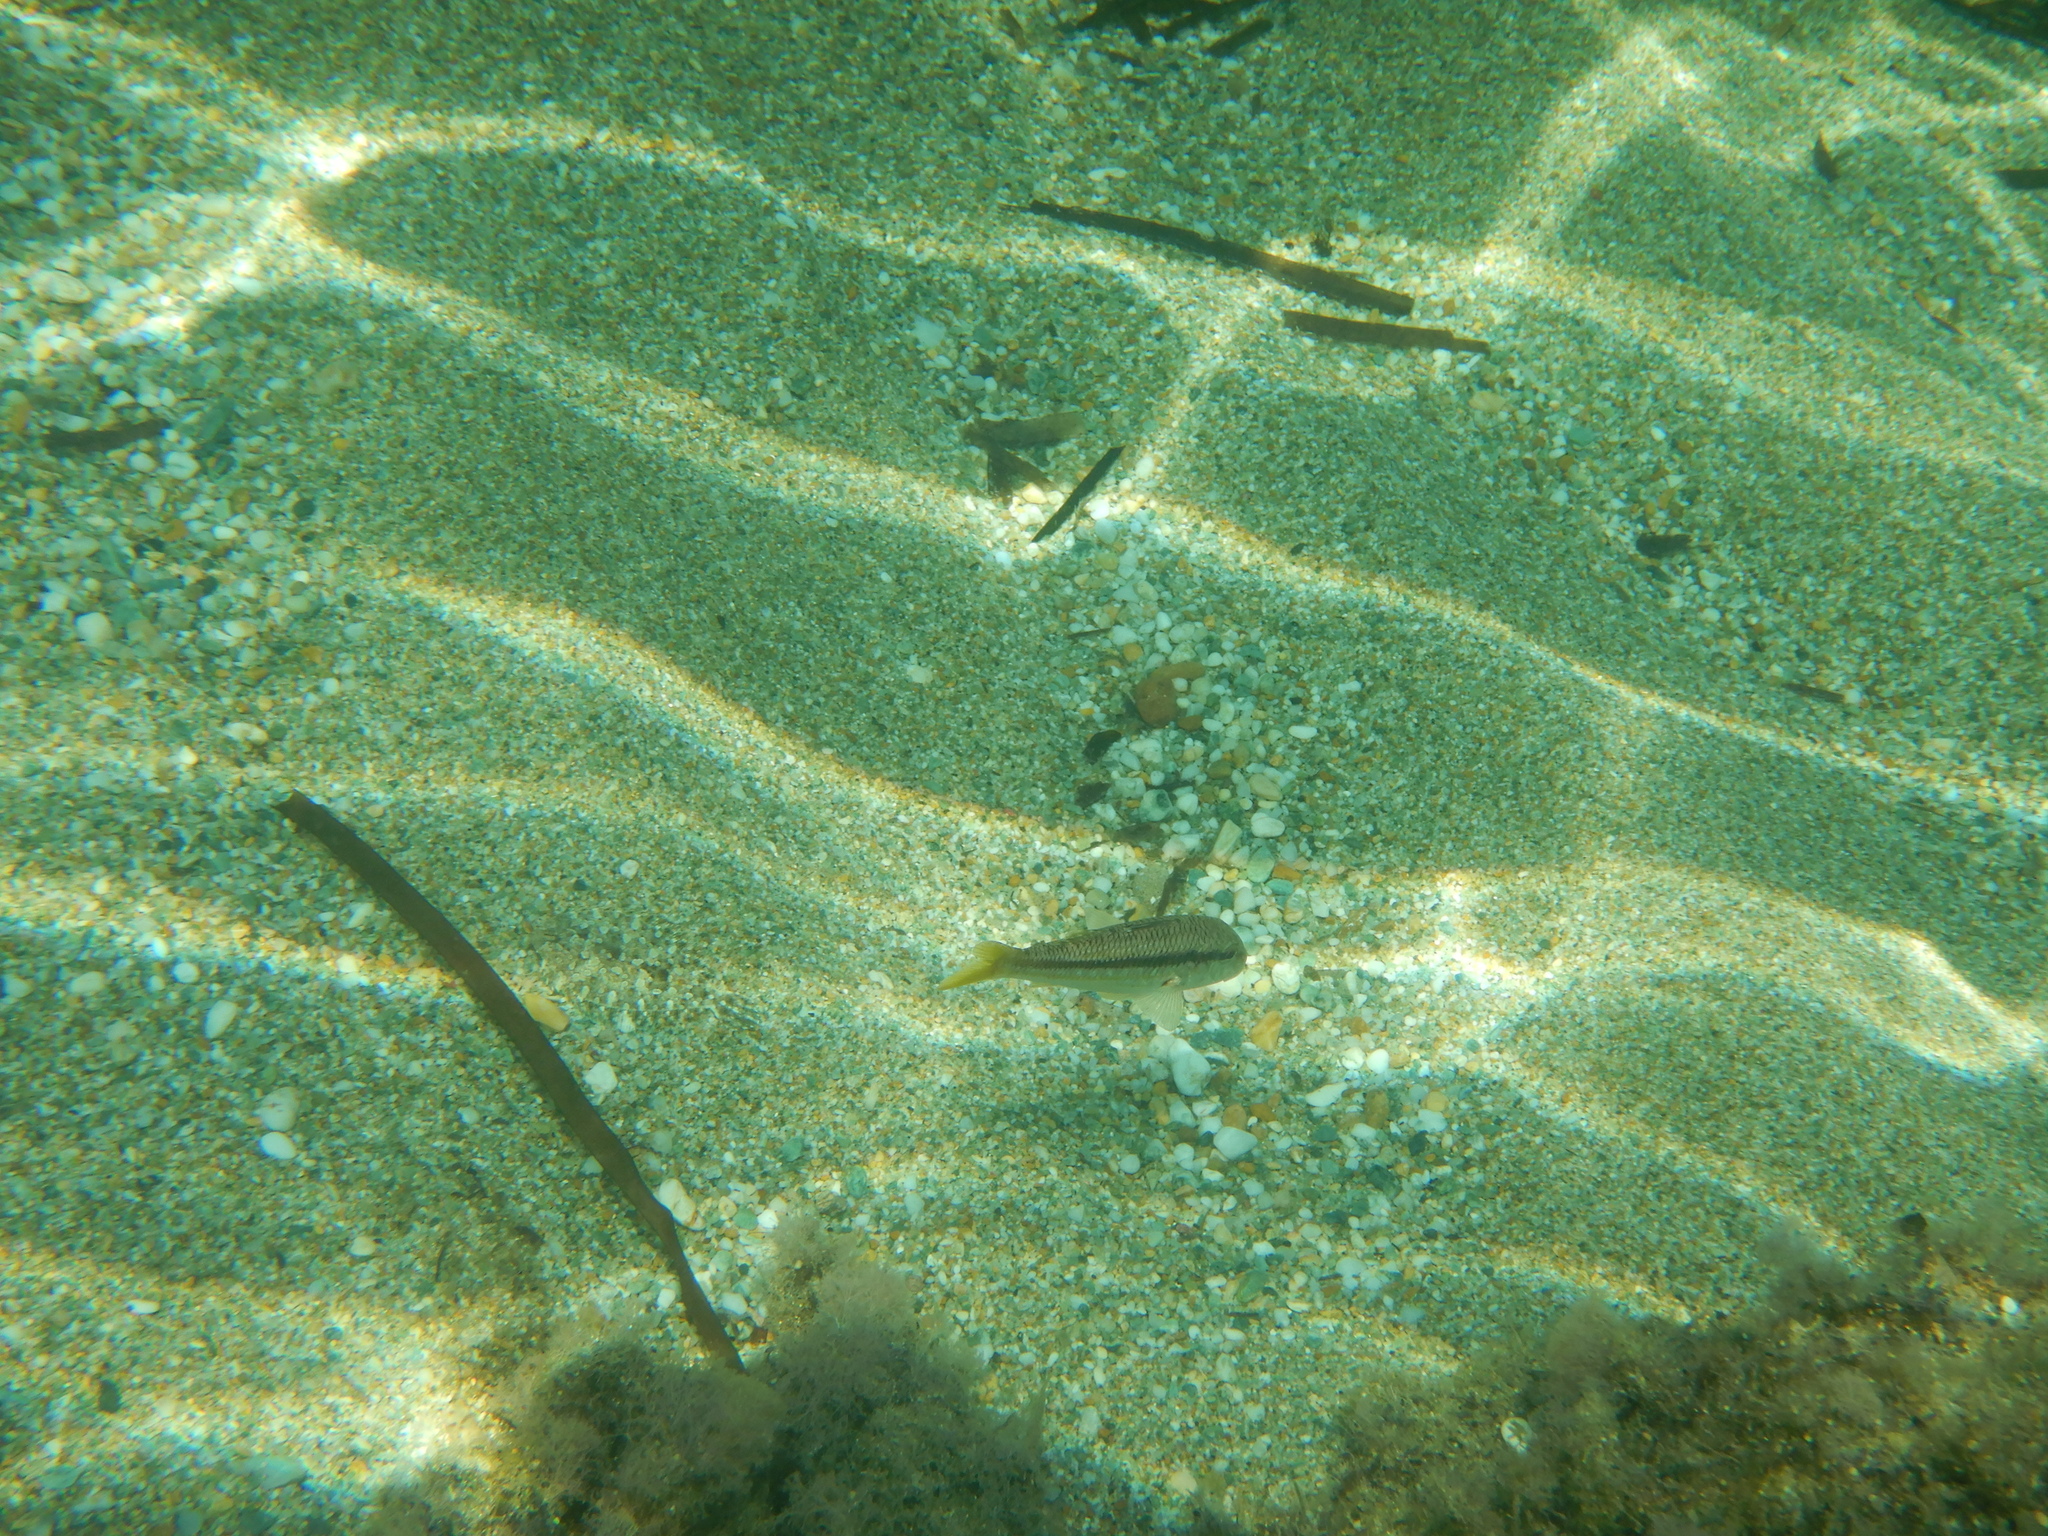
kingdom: Animalia
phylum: Chordata
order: Perciformes
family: Mullidae
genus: Mullus
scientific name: Mullus surmuletus
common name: Red mullet
